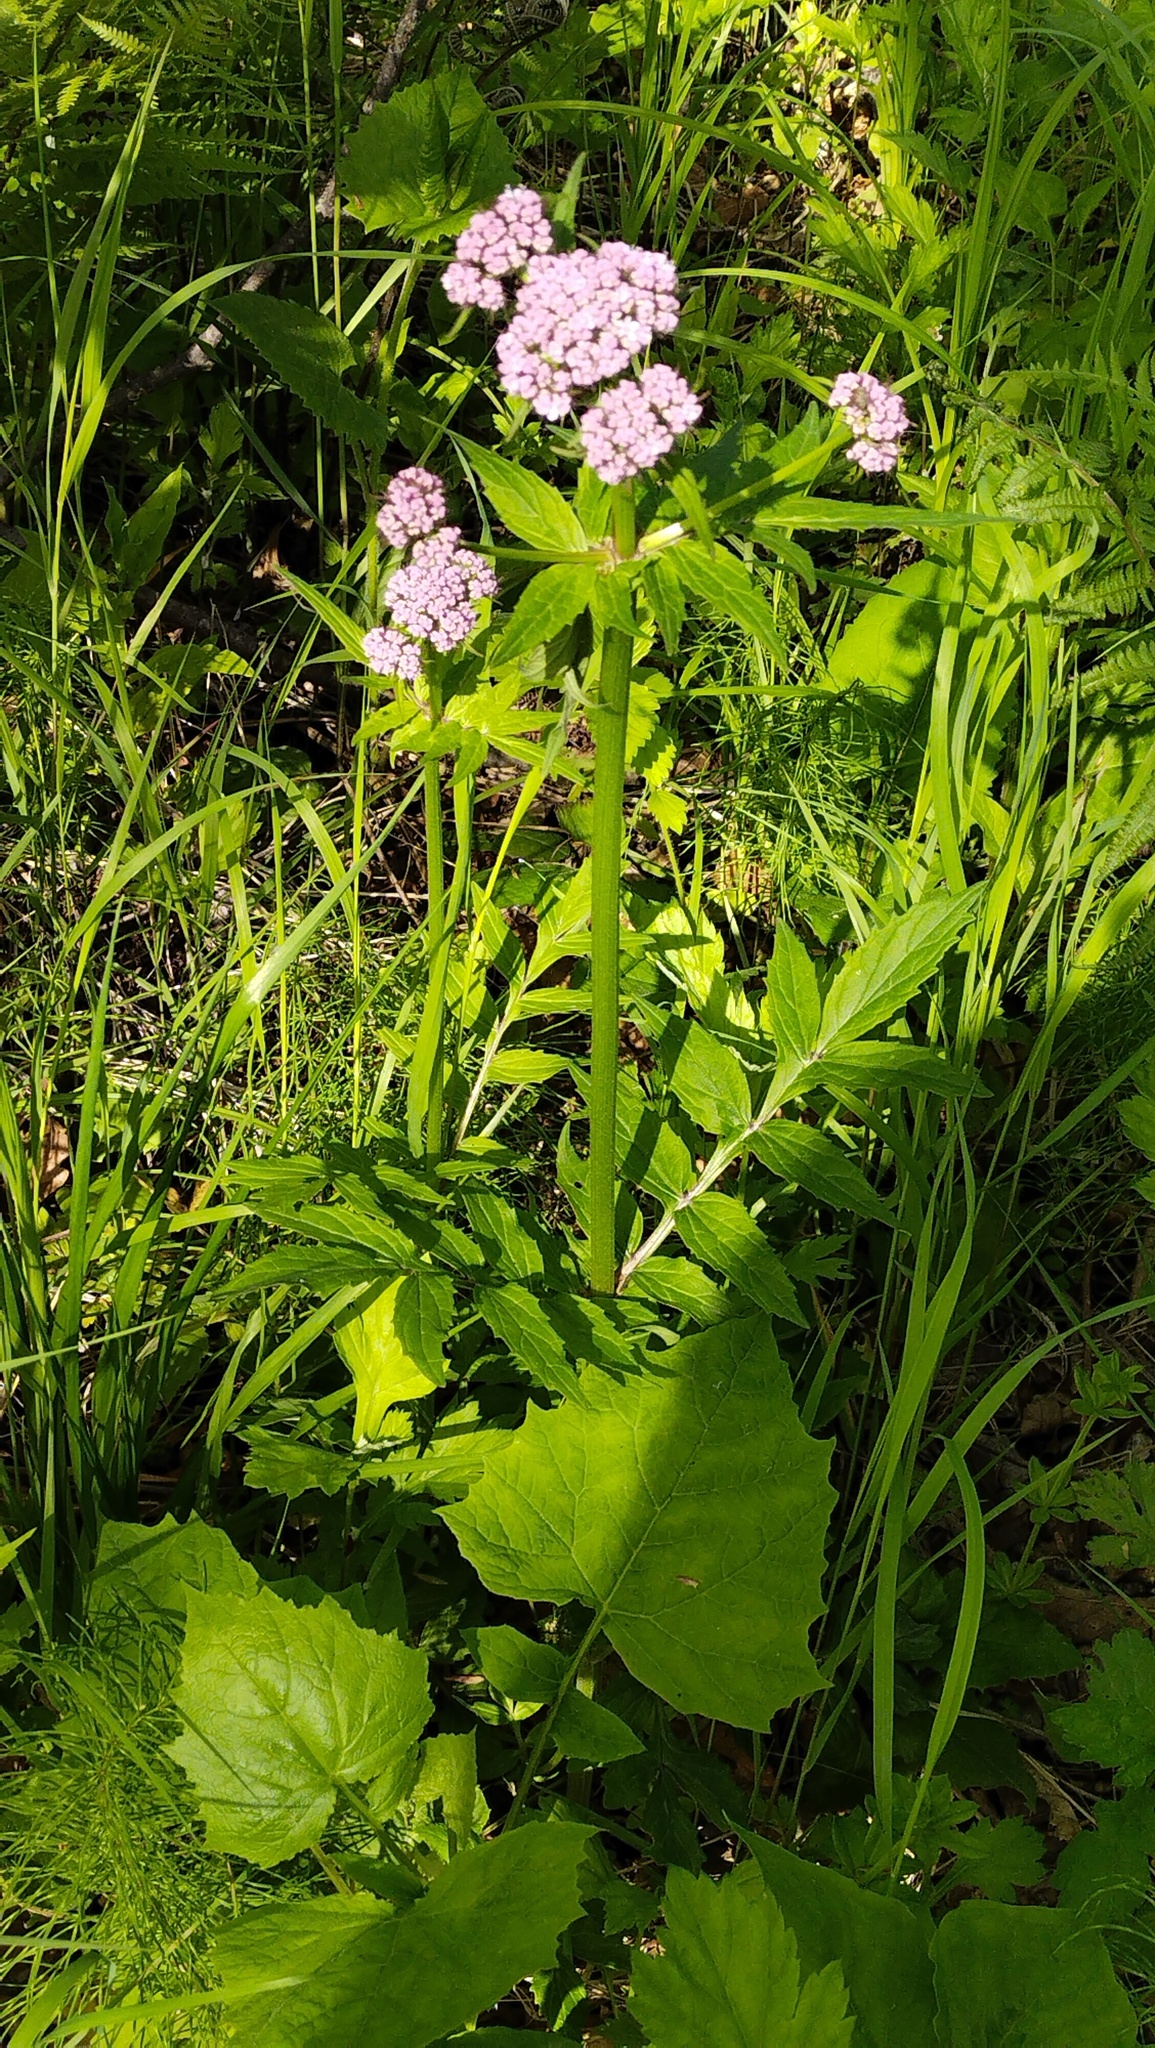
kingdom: Plantae
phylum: Tracheophyta
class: Magnoliopsida
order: Dipsacales
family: Caprifoliaceae
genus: Valeriana
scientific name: Valeriana fauriei
